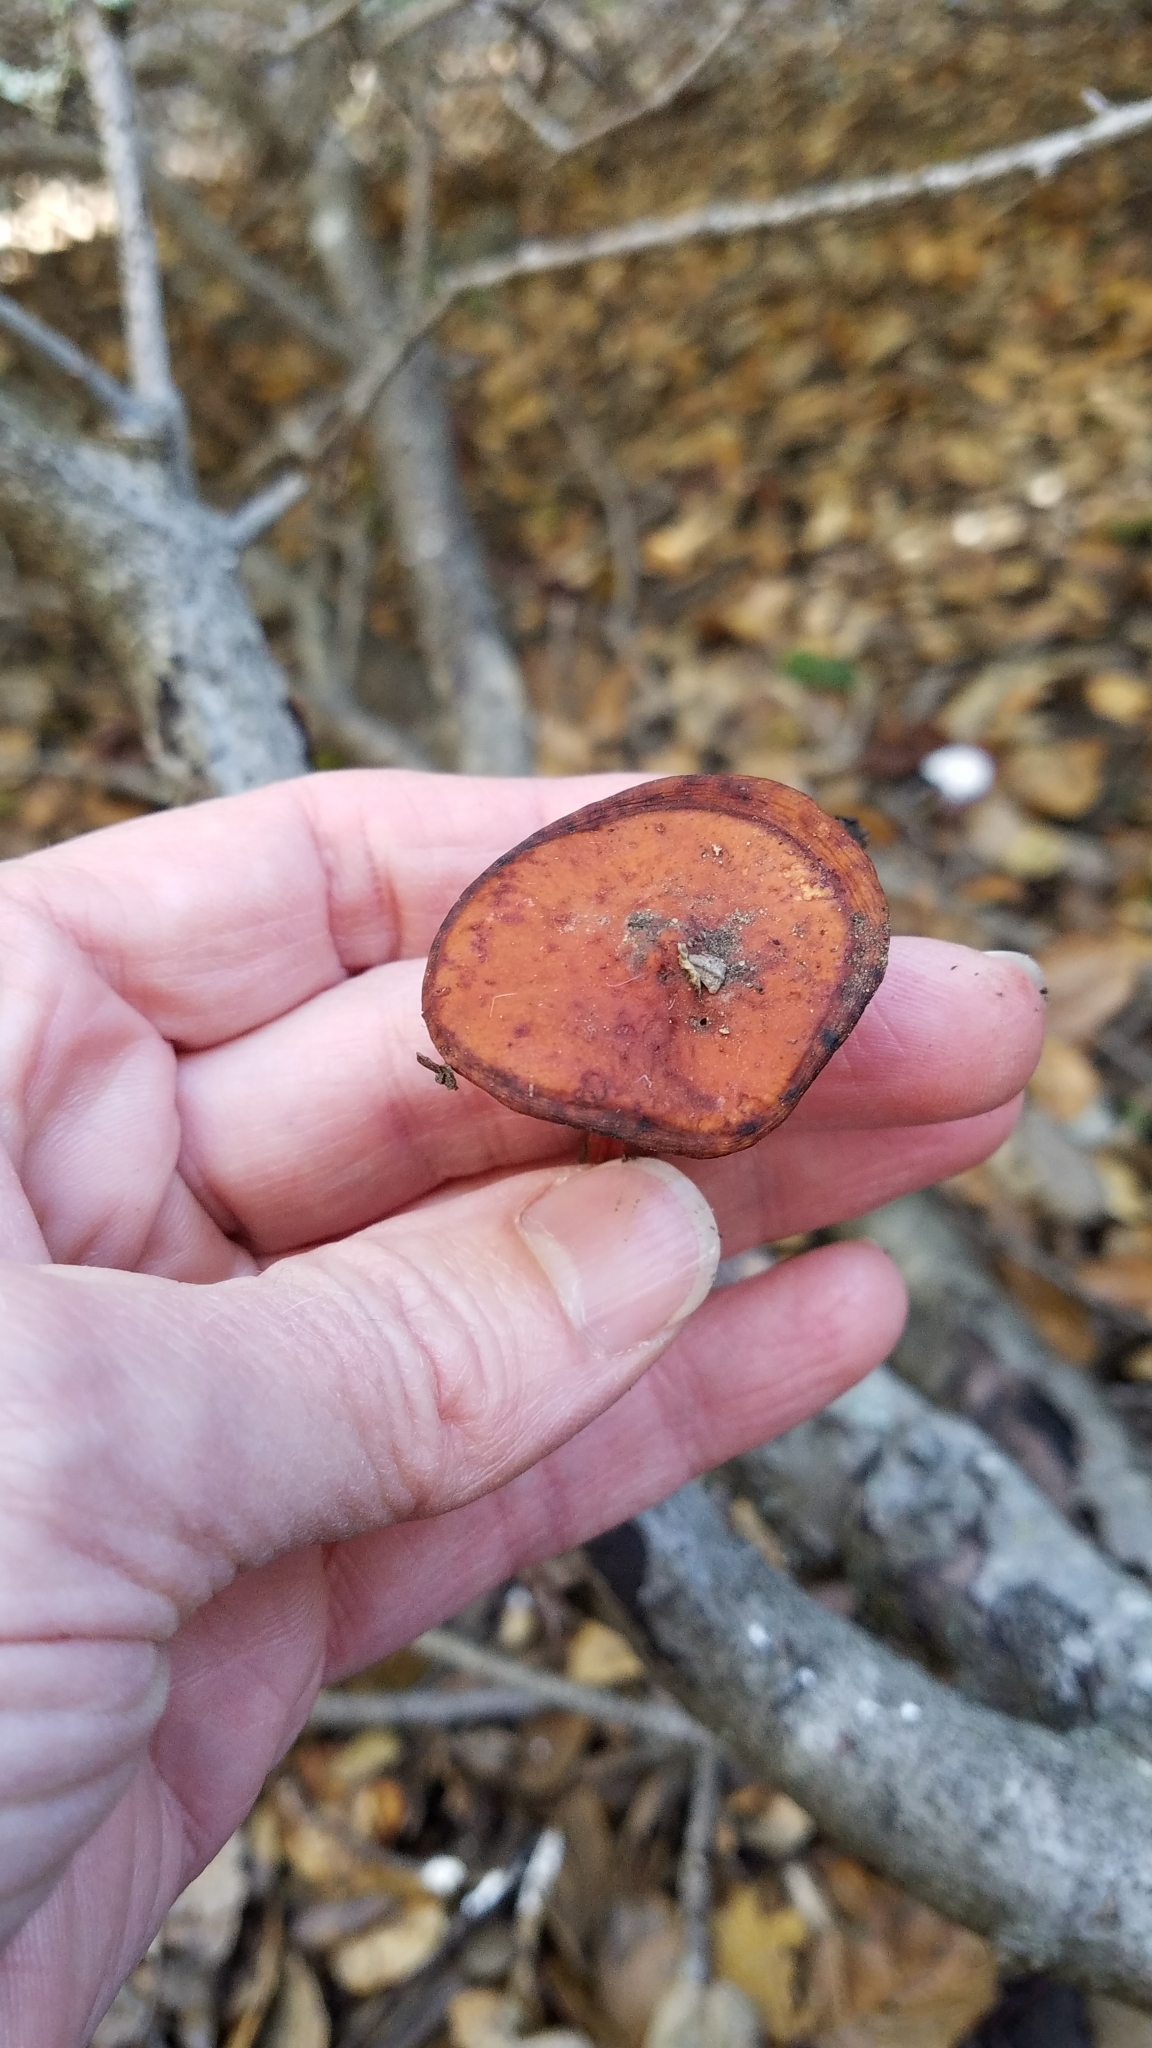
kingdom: Fungi
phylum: Basidiomycota
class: Agaricomycetes
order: Russulales
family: Russulaceae
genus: Lactarius
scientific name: Lactarius rufulus
